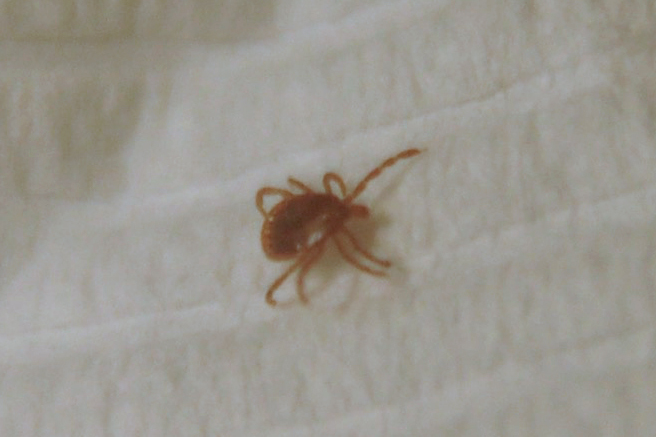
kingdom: Animalia
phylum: Arthropoda
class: Arachnida
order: Ixodida
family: Ixodidae
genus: Amblyomma
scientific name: Amblyomma americanum
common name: Lone star tick
